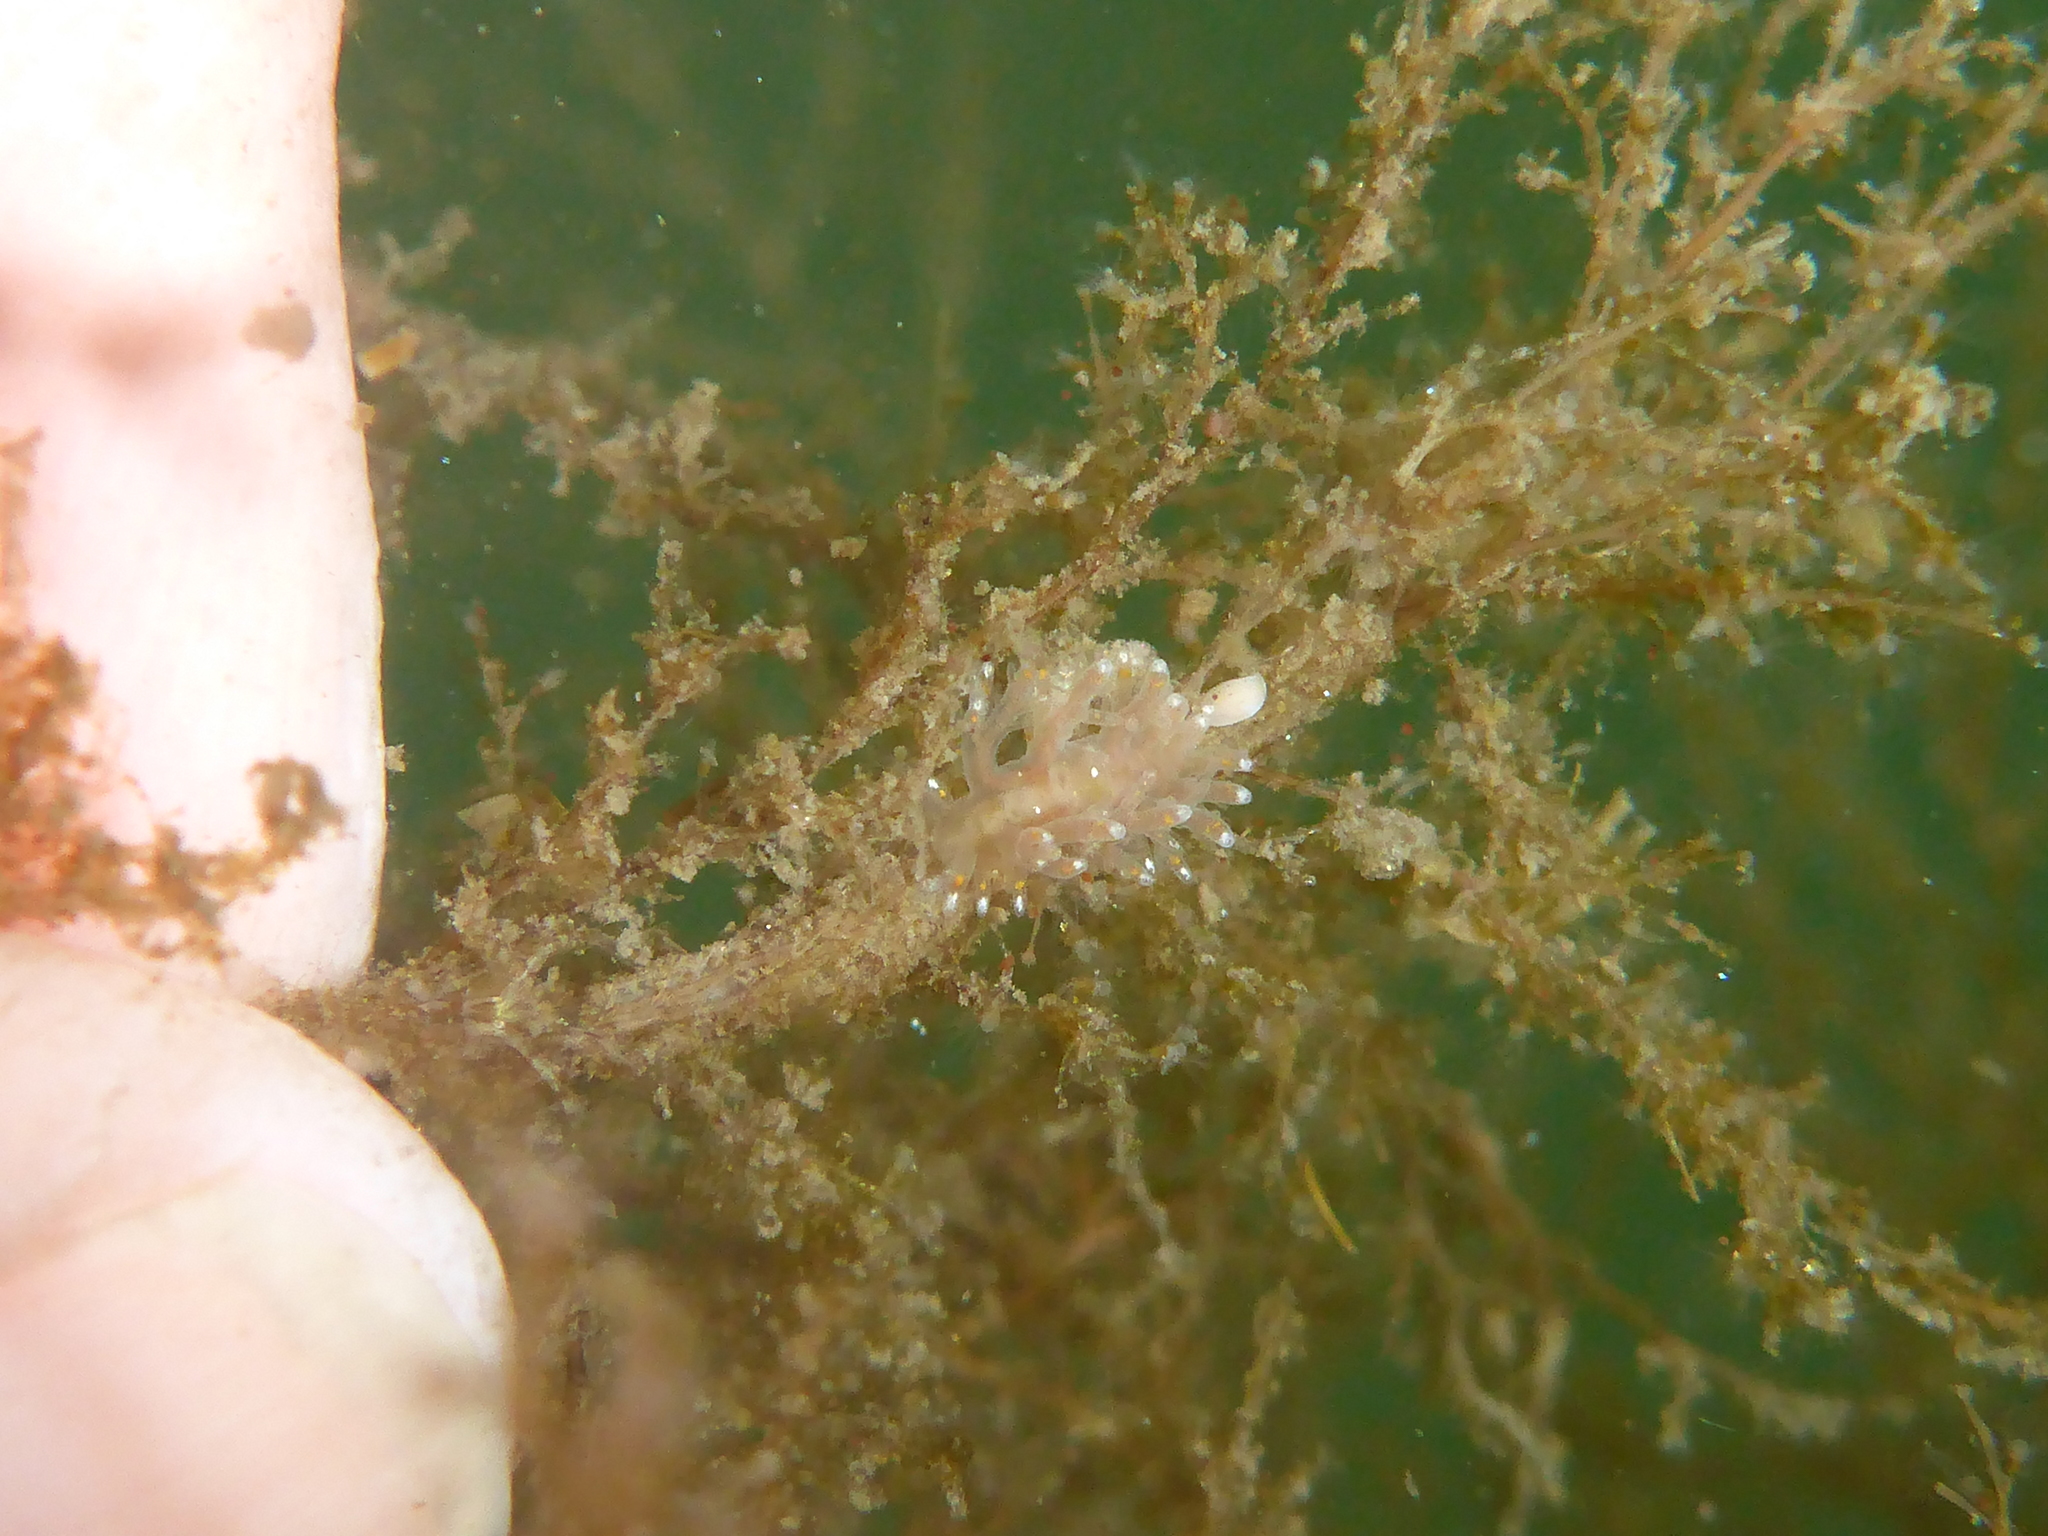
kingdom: Animalia
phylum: Mollusca
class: Gastropoda
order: Nudibranchia
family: Dendronotidae
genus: Dendronotus
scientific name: Dendronotus iris
